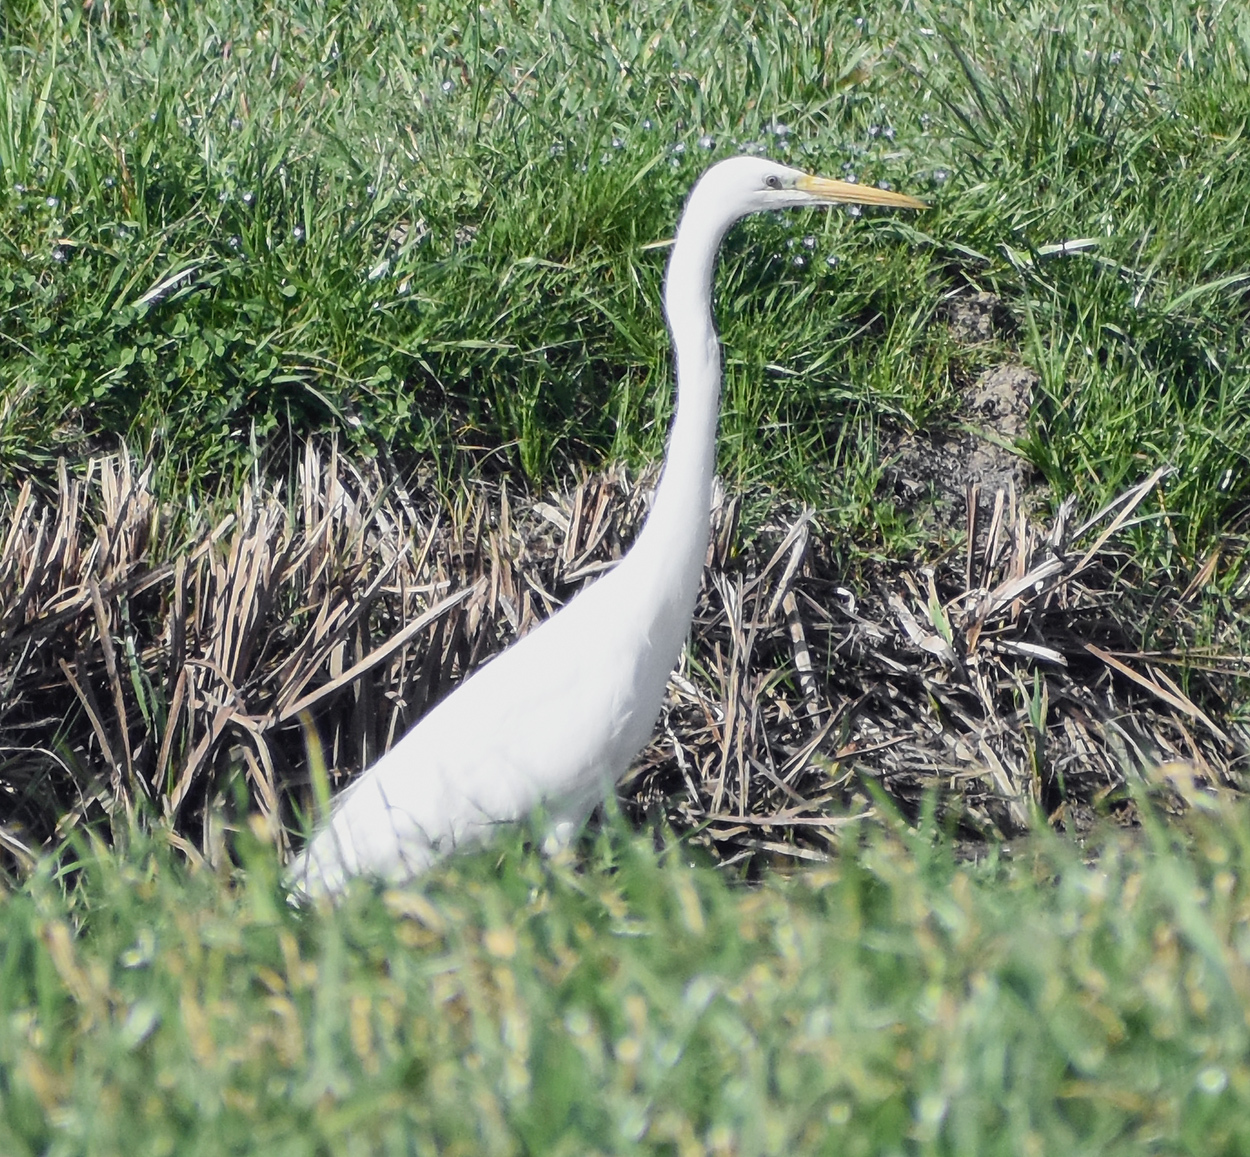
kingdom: Animalia
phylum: Chordata
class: Aves
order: Pelecaniformes
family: Ardeidae
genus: Ardea
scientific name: Ardea alba
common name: Great egret
